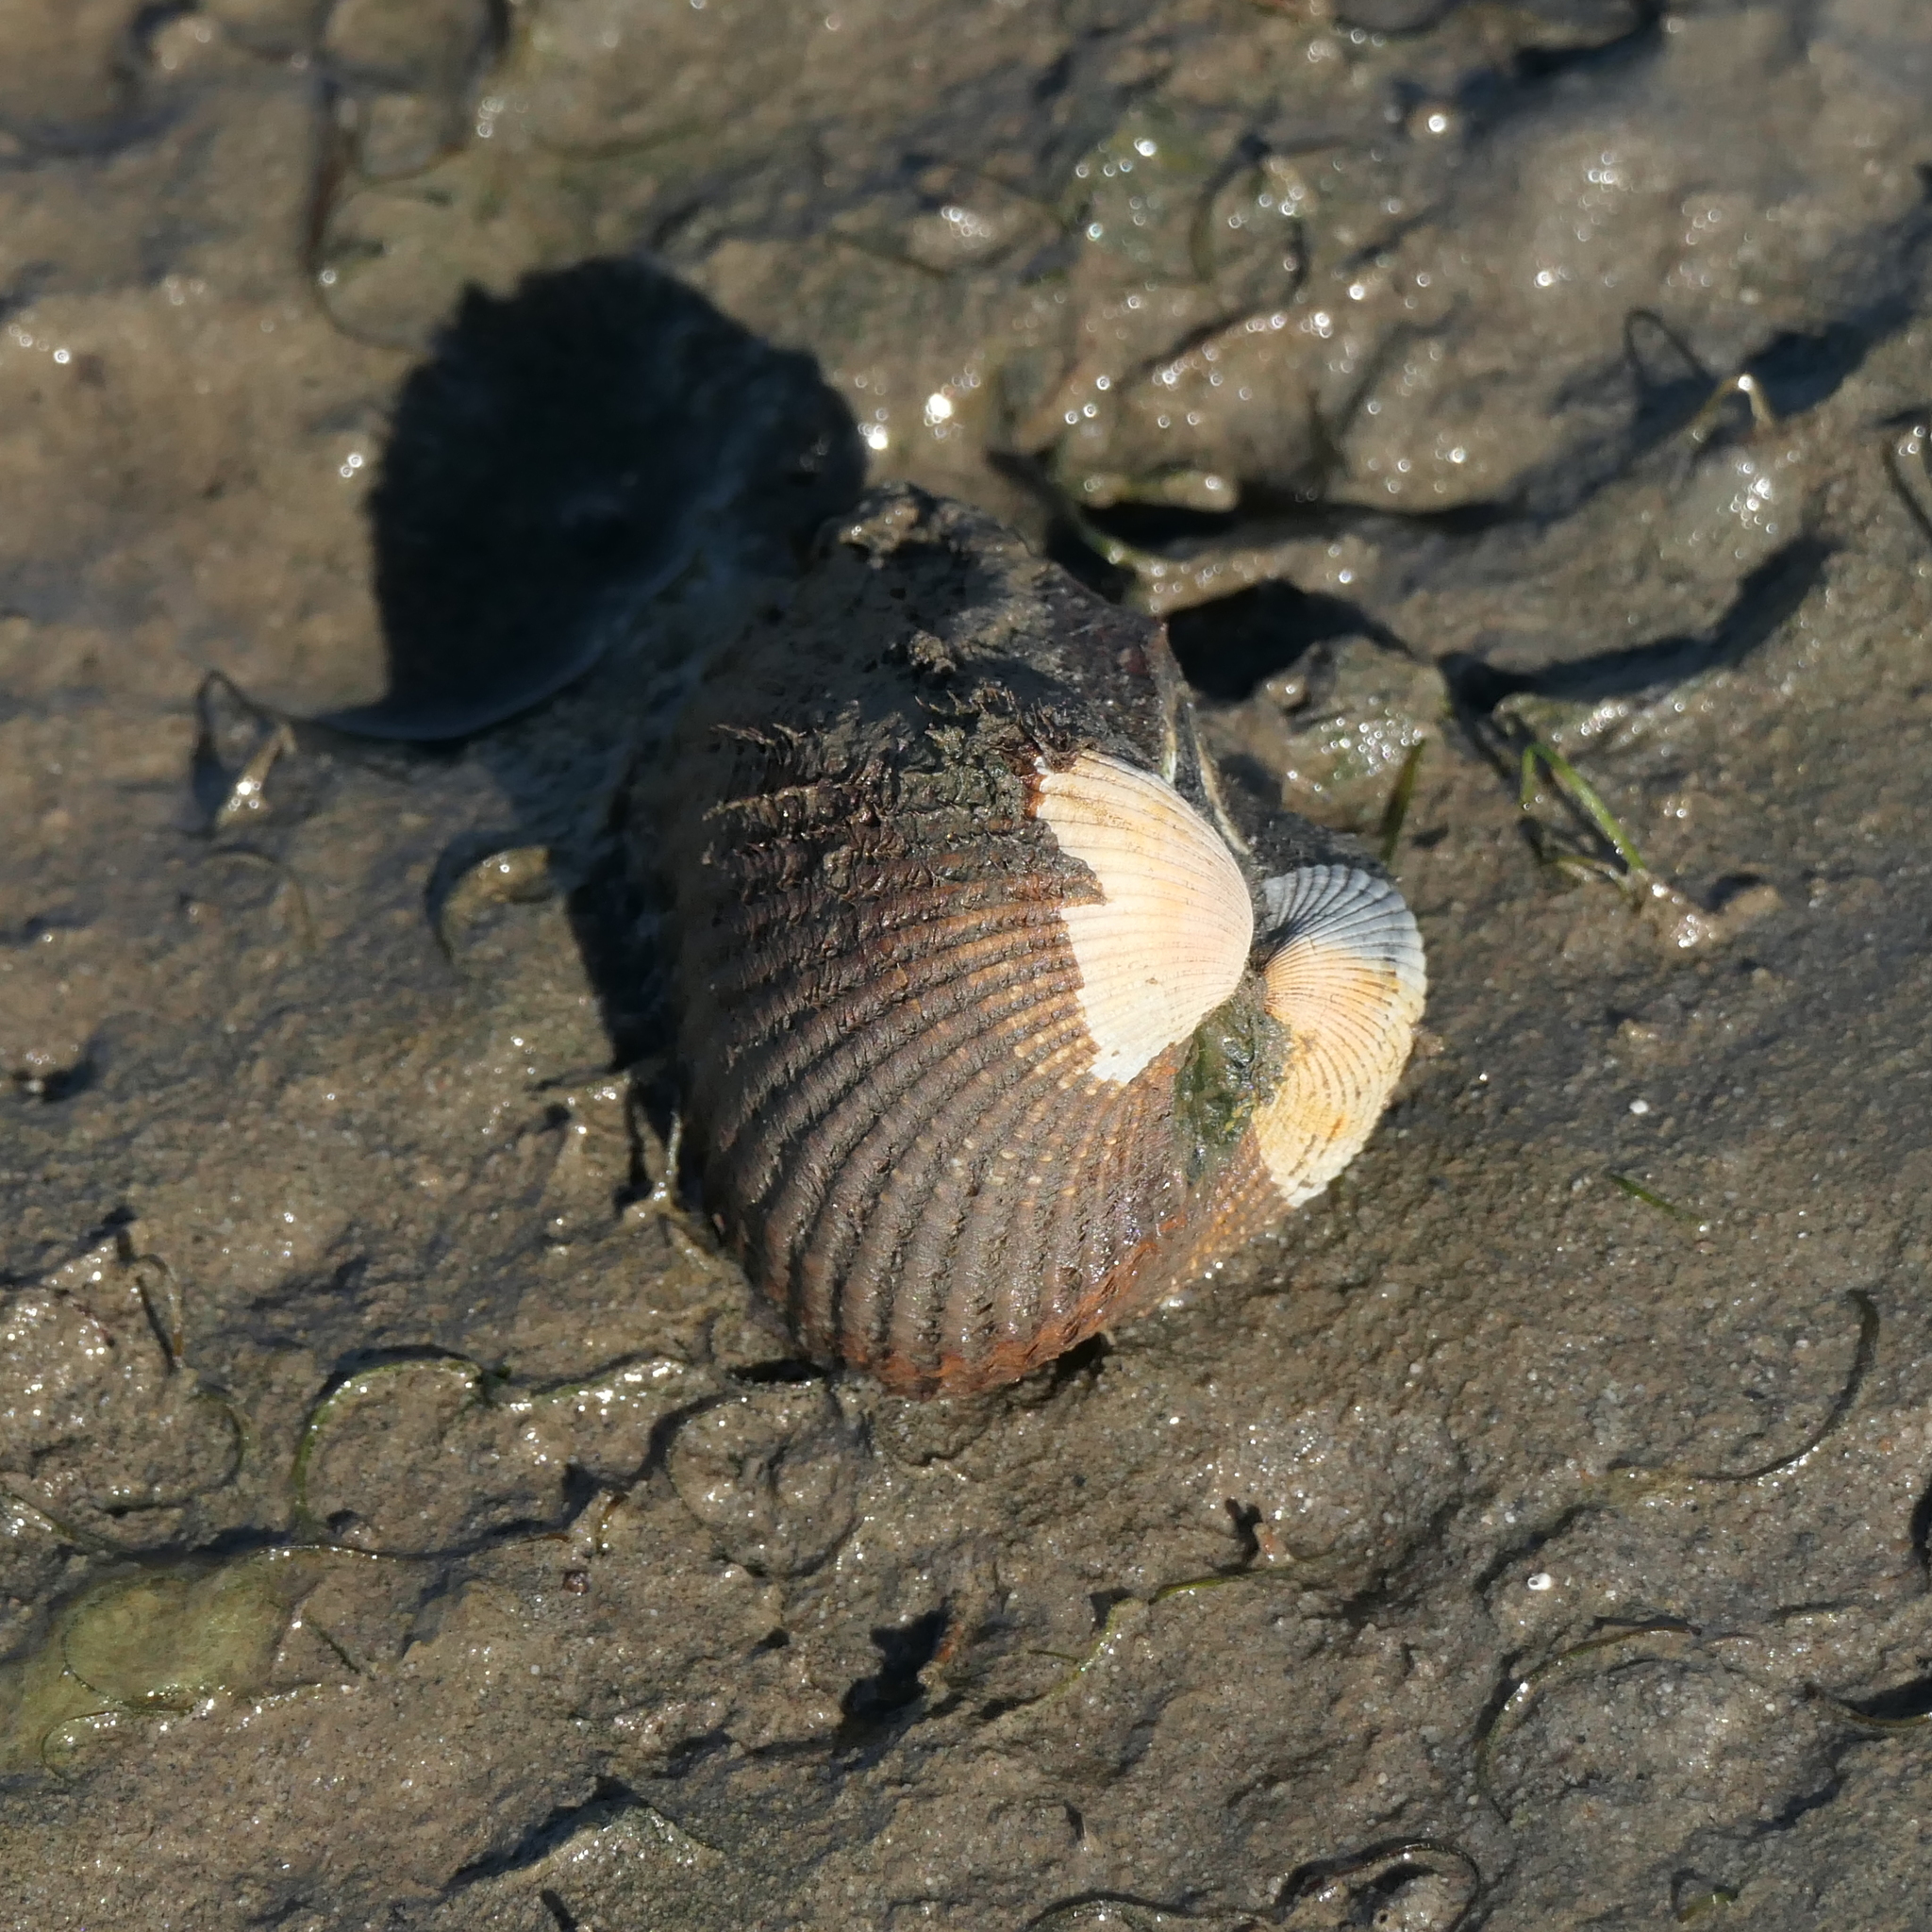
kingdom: Animalia
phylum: Mollusca
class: Bivalvia
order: Arcida
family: Arcidae
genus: Anadara
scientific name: Anadara trapezia
